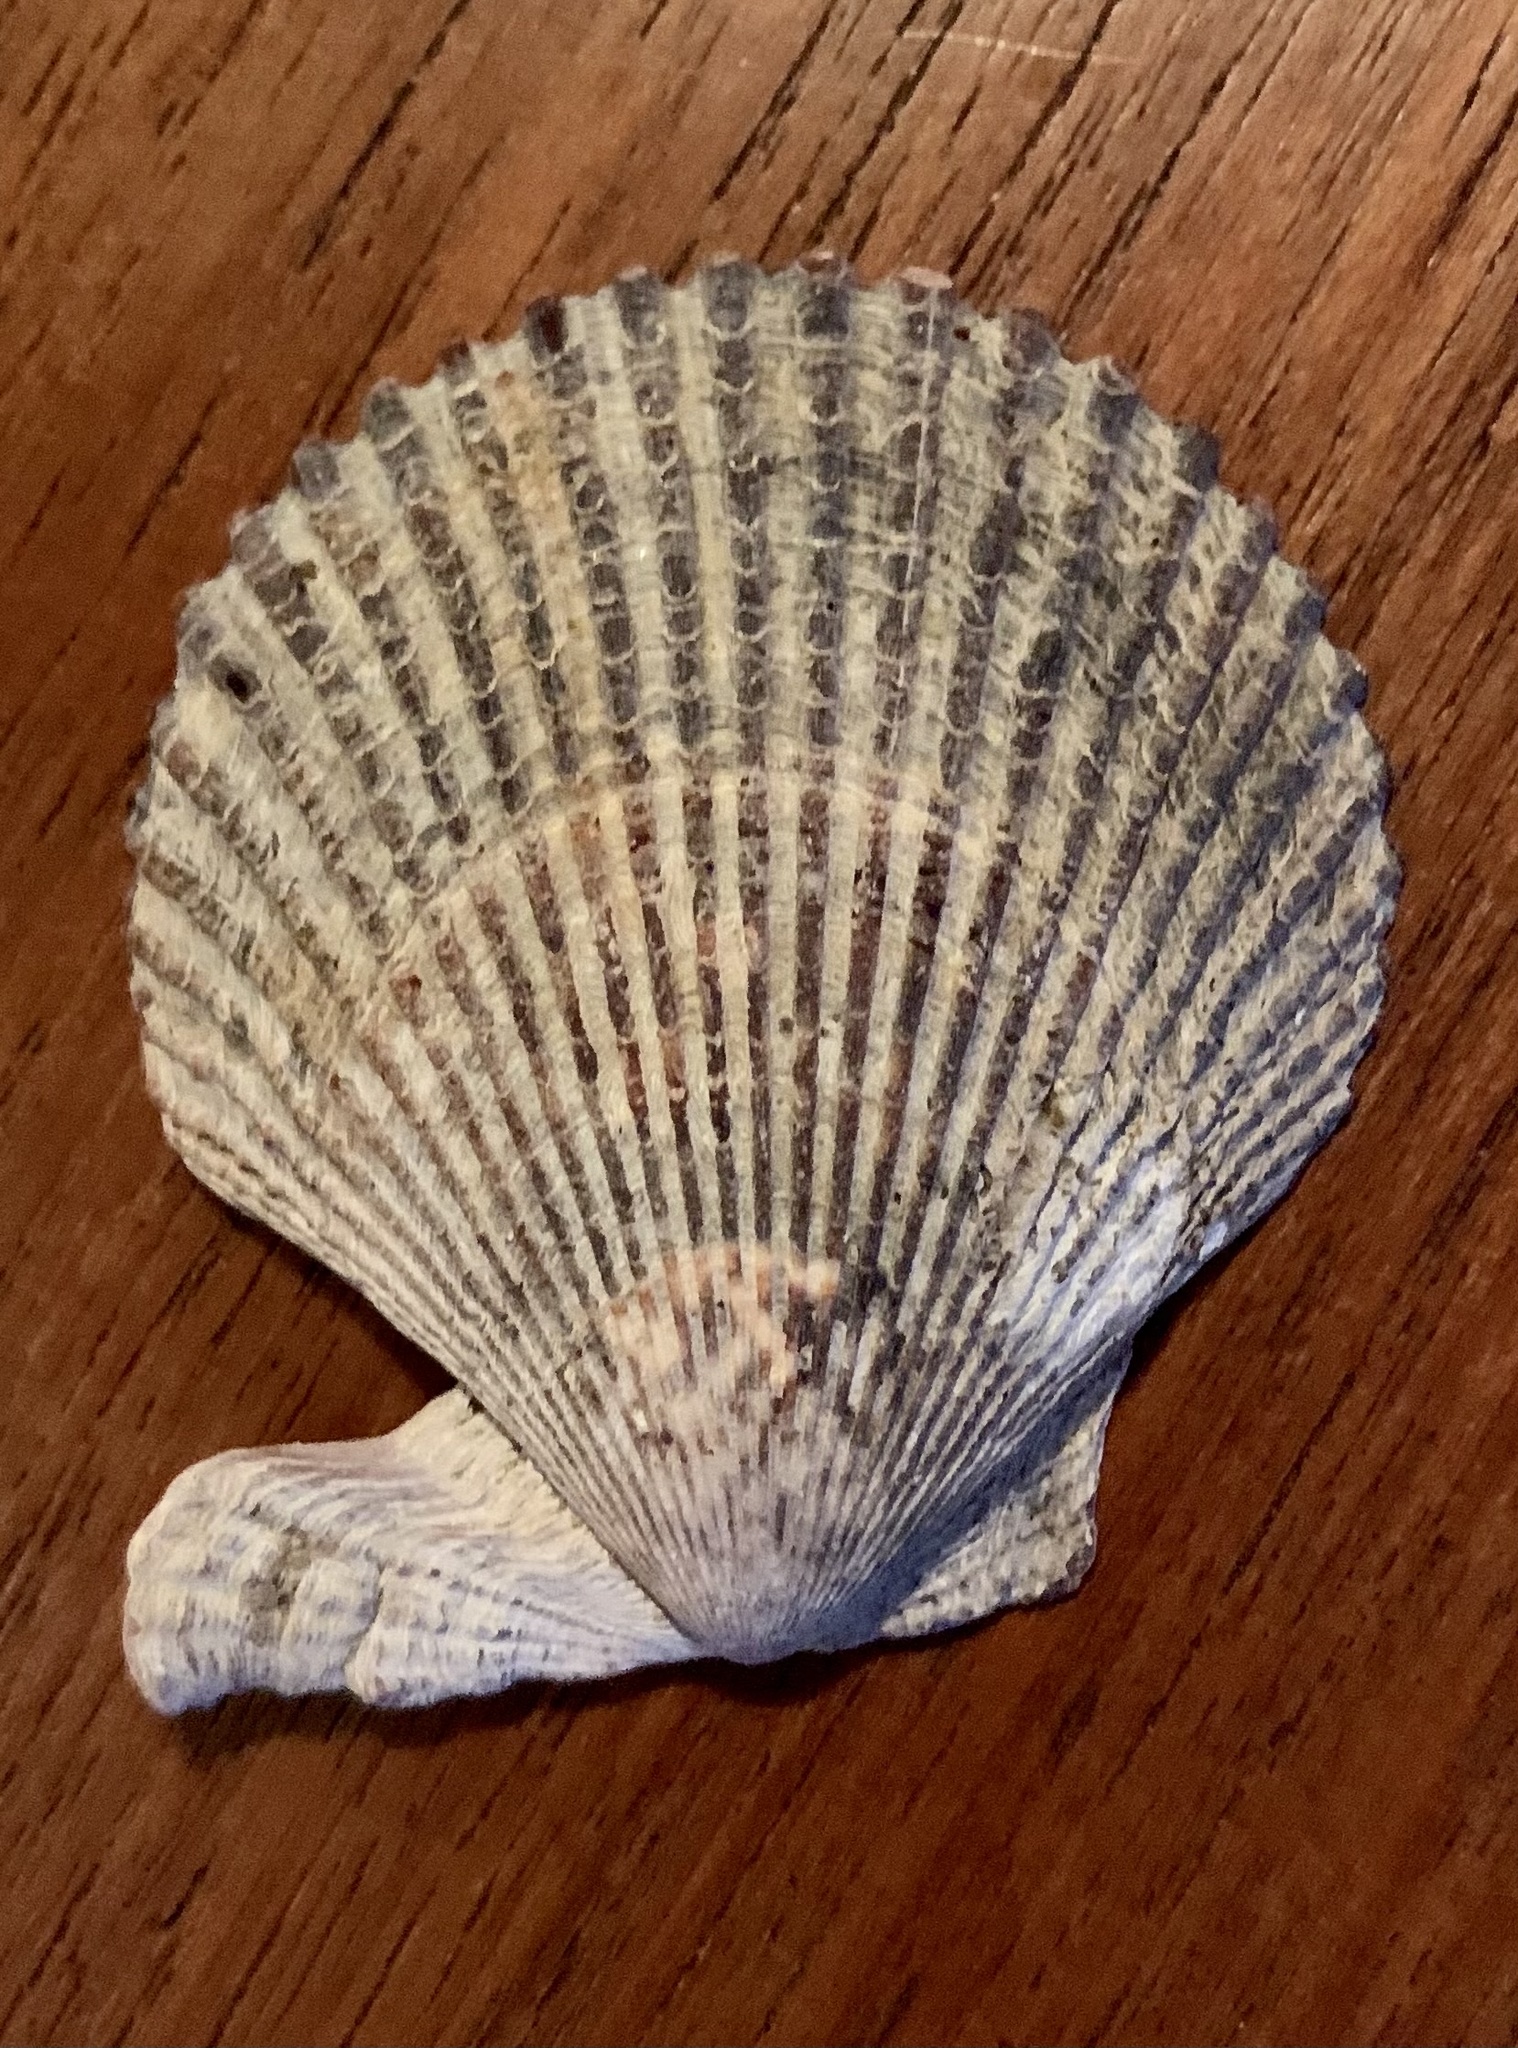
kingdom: Animalia
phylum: Mollusca
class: Bivalvia
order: Pectinida
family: Pectinidae
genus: Mimachlamys
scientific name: Mimachlamys varia
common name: Variegated scallop
